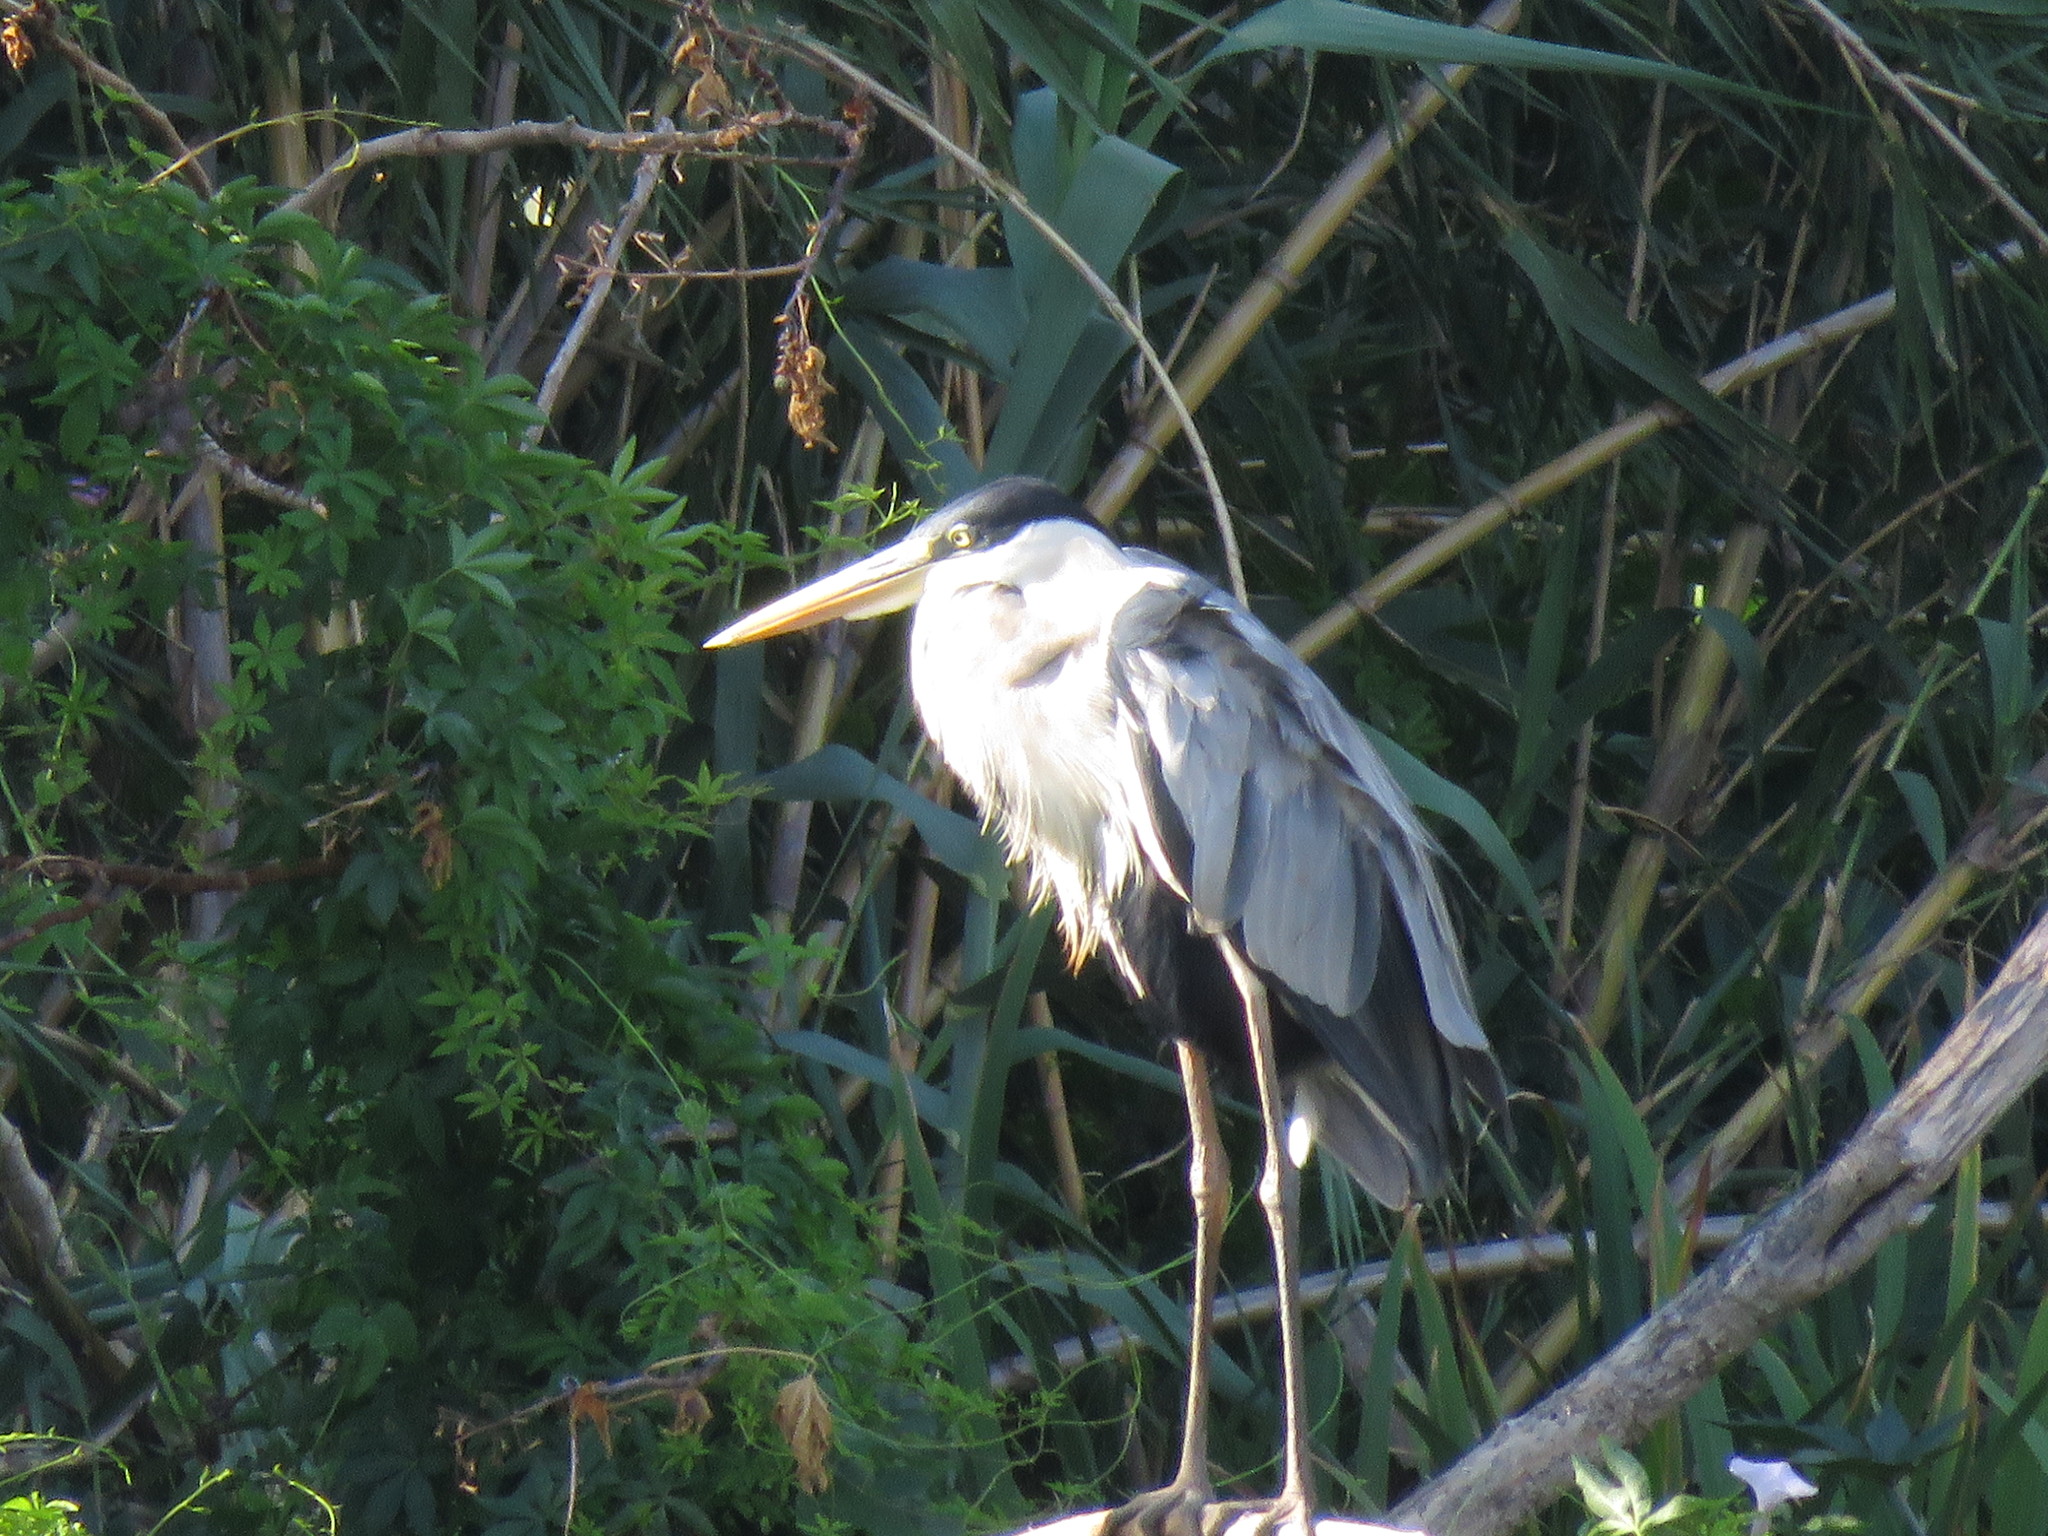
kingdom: Animalia
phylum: Chordata
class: Aves
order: Pelecaniformes
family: Ardeidae
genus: Ardea
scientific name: Ardea cocoi
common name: Cocoi heron
